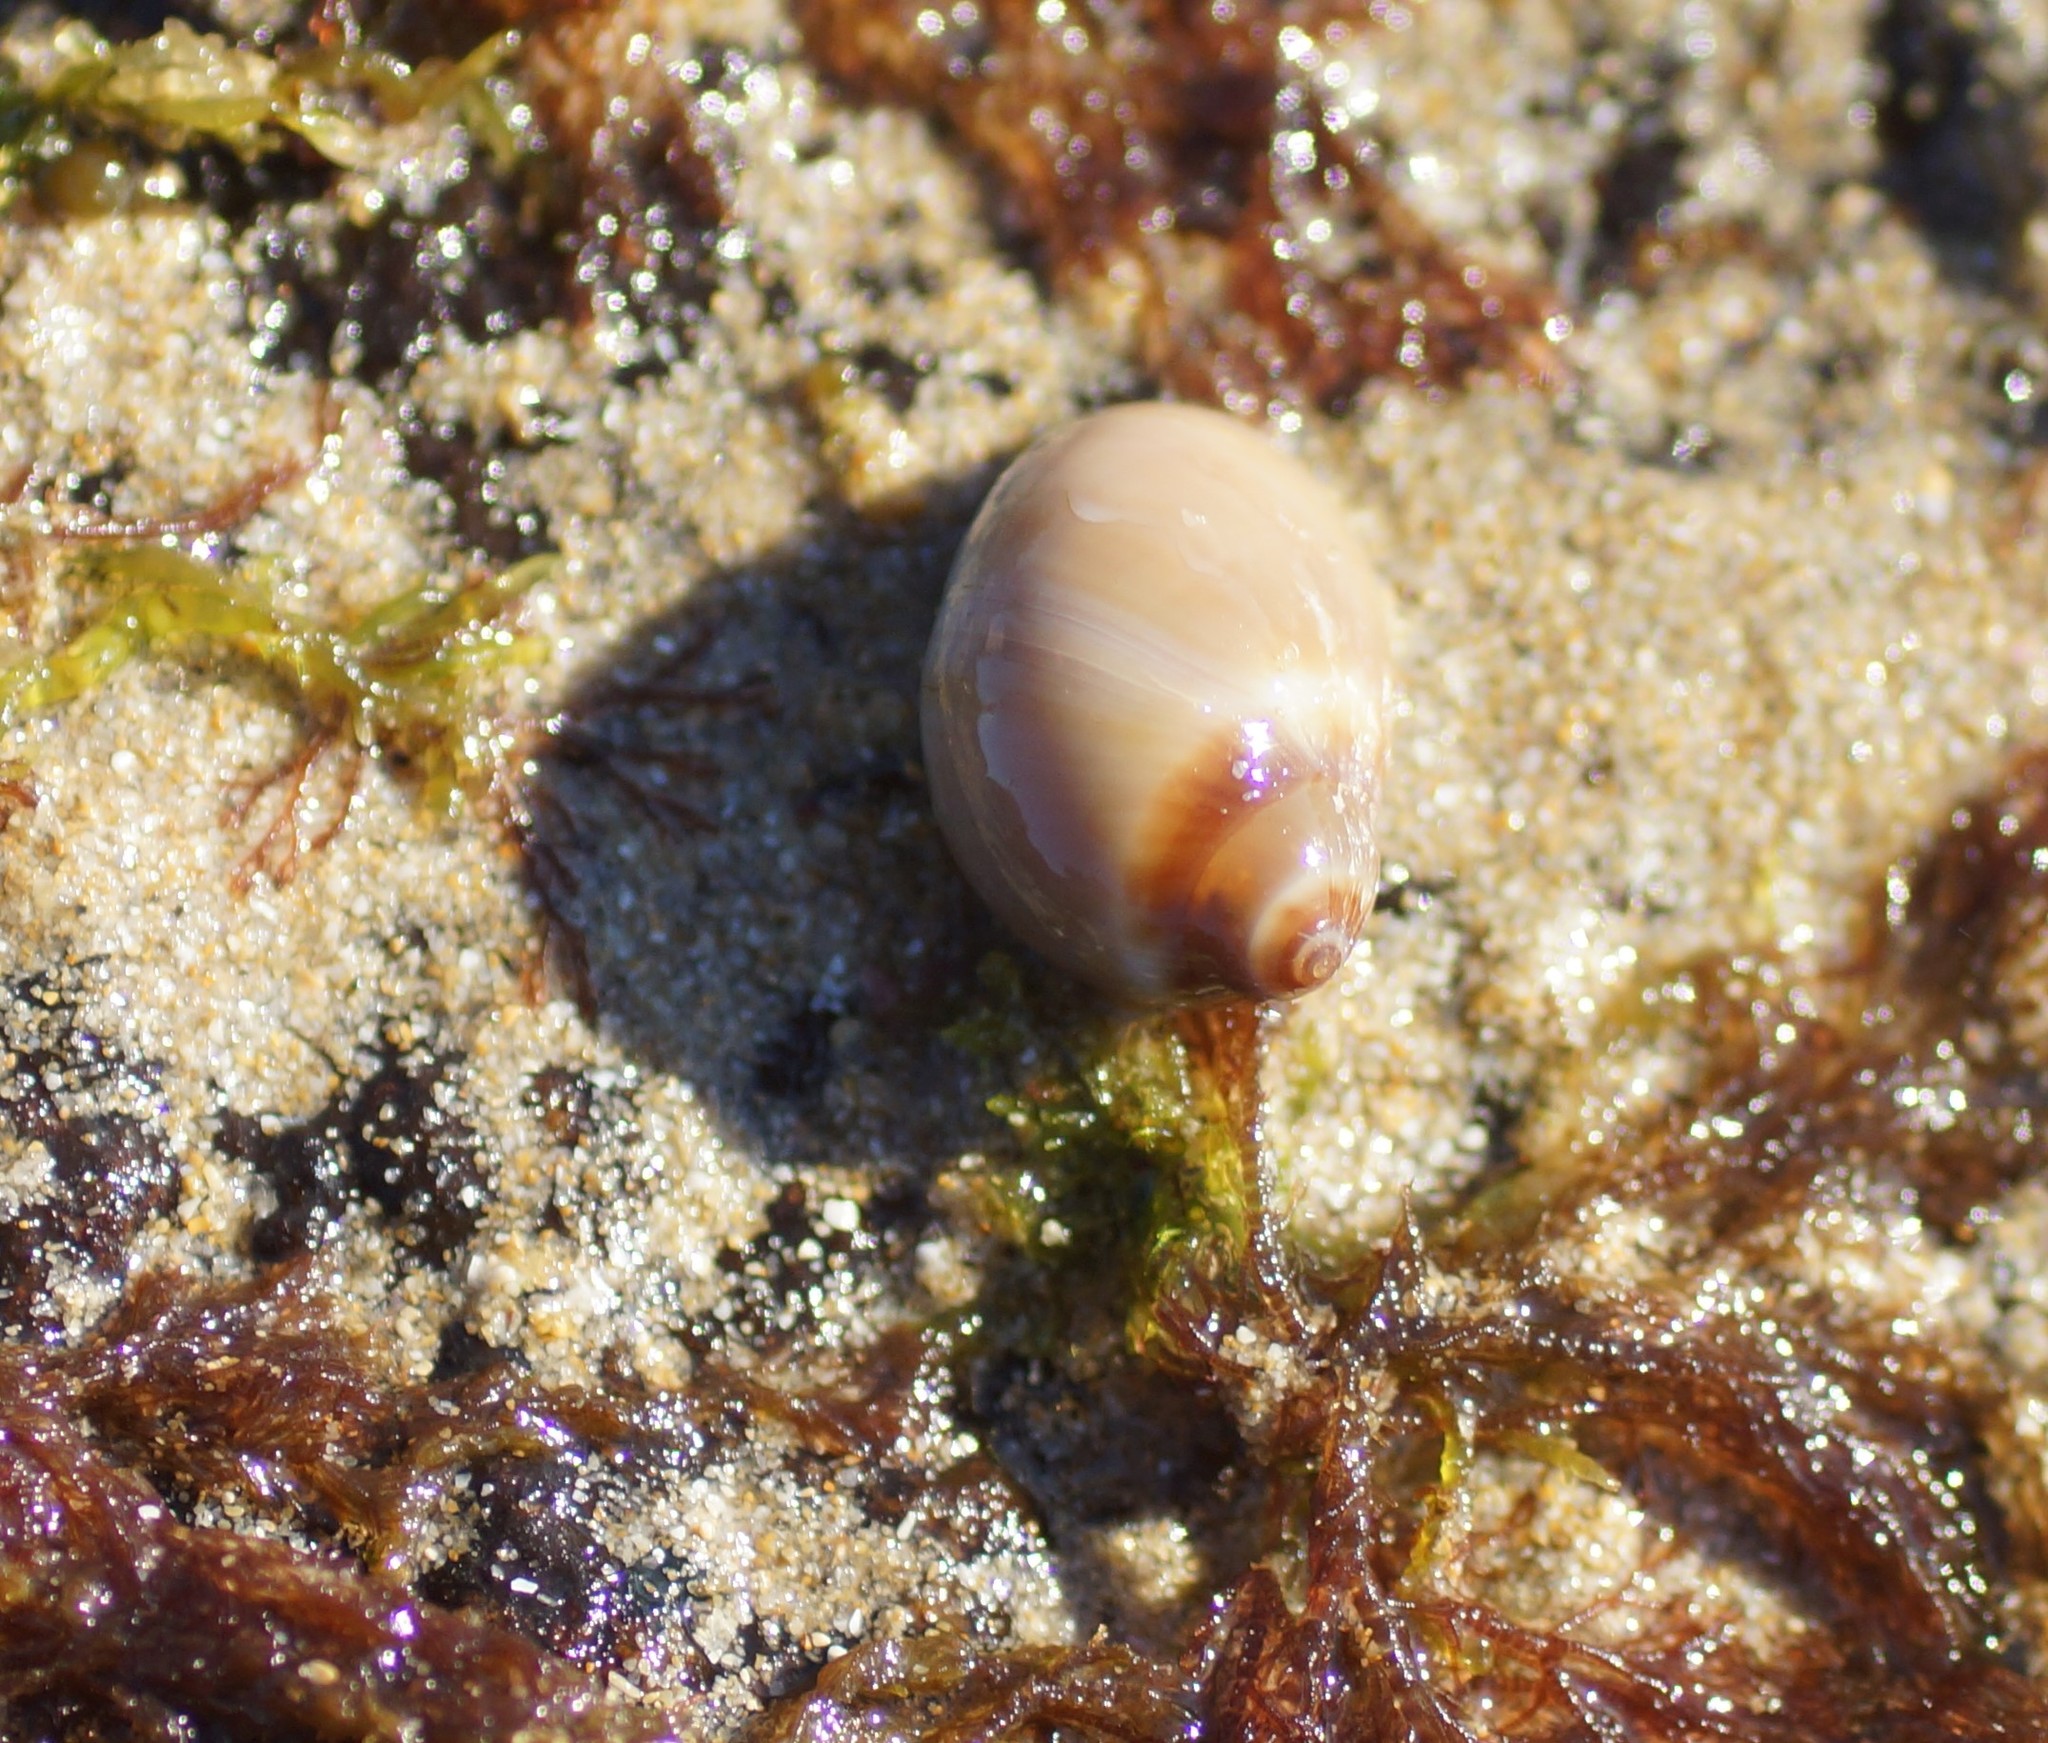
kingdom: Animalia
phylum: Mollusca
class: Gastropoda
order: Littorinimorpha
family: Naticidae
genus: Conuber
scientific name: Conuber conicum
